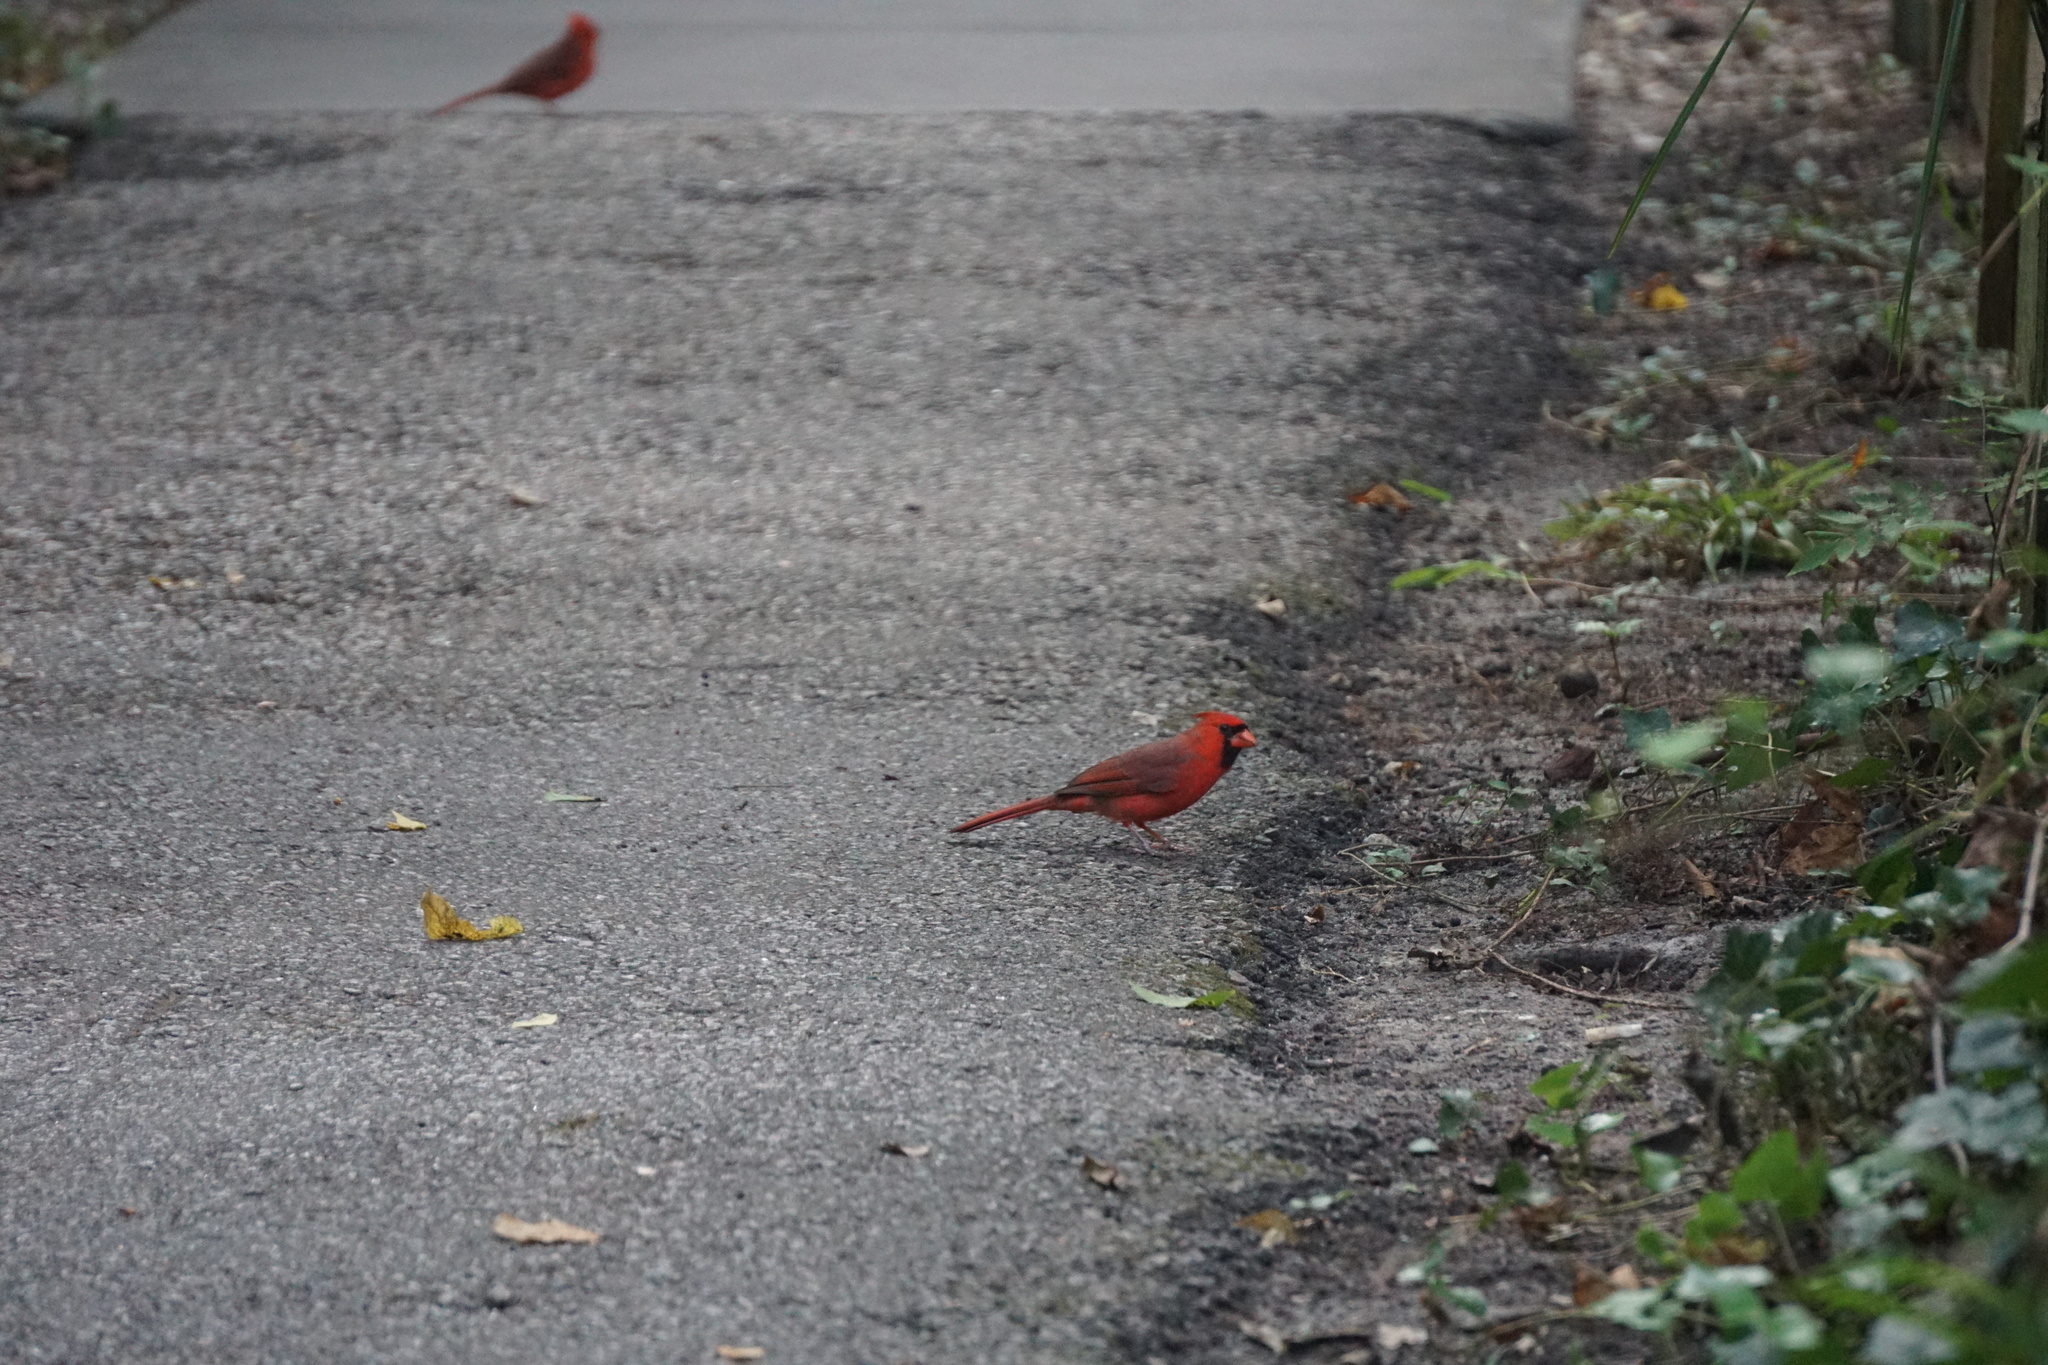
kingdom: Animalia
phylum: Chordata
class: Aves
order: Passeriformes
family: Cardinalidae
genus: Cardinalis
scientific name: Cardinalis cardinalis
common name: Northern cardinal
